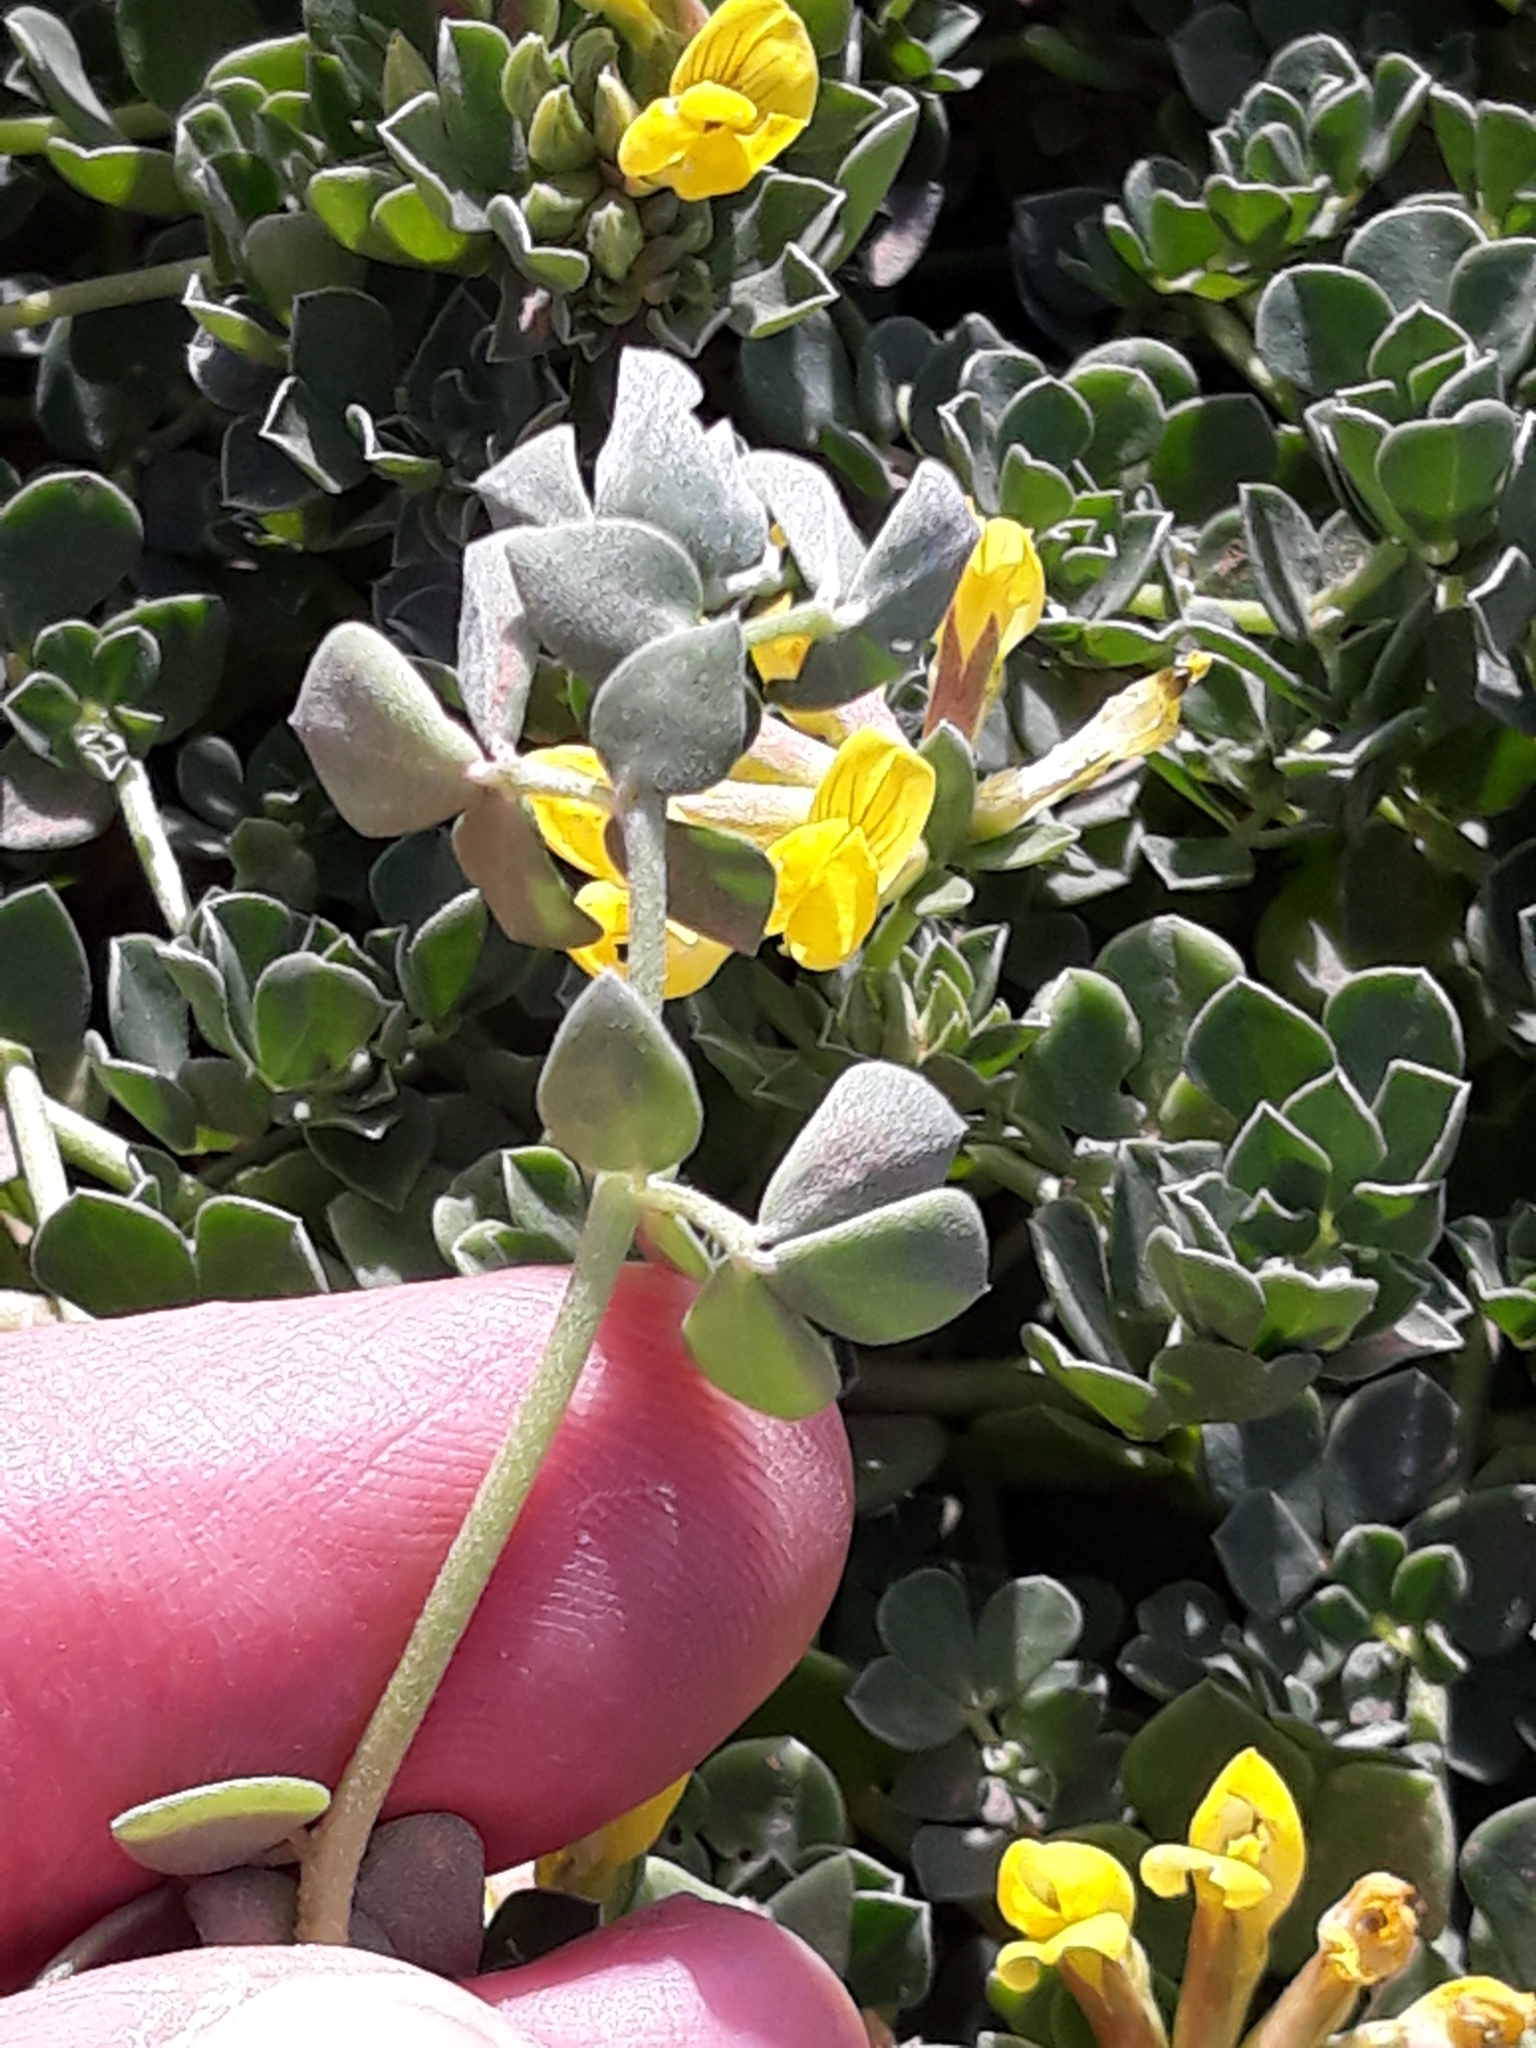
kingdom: Plantae
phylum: Tracheophyta
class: Magnoliopsida
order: Fabales
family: Fabaceae
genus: Lotus
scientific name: Lotus cytisoides
